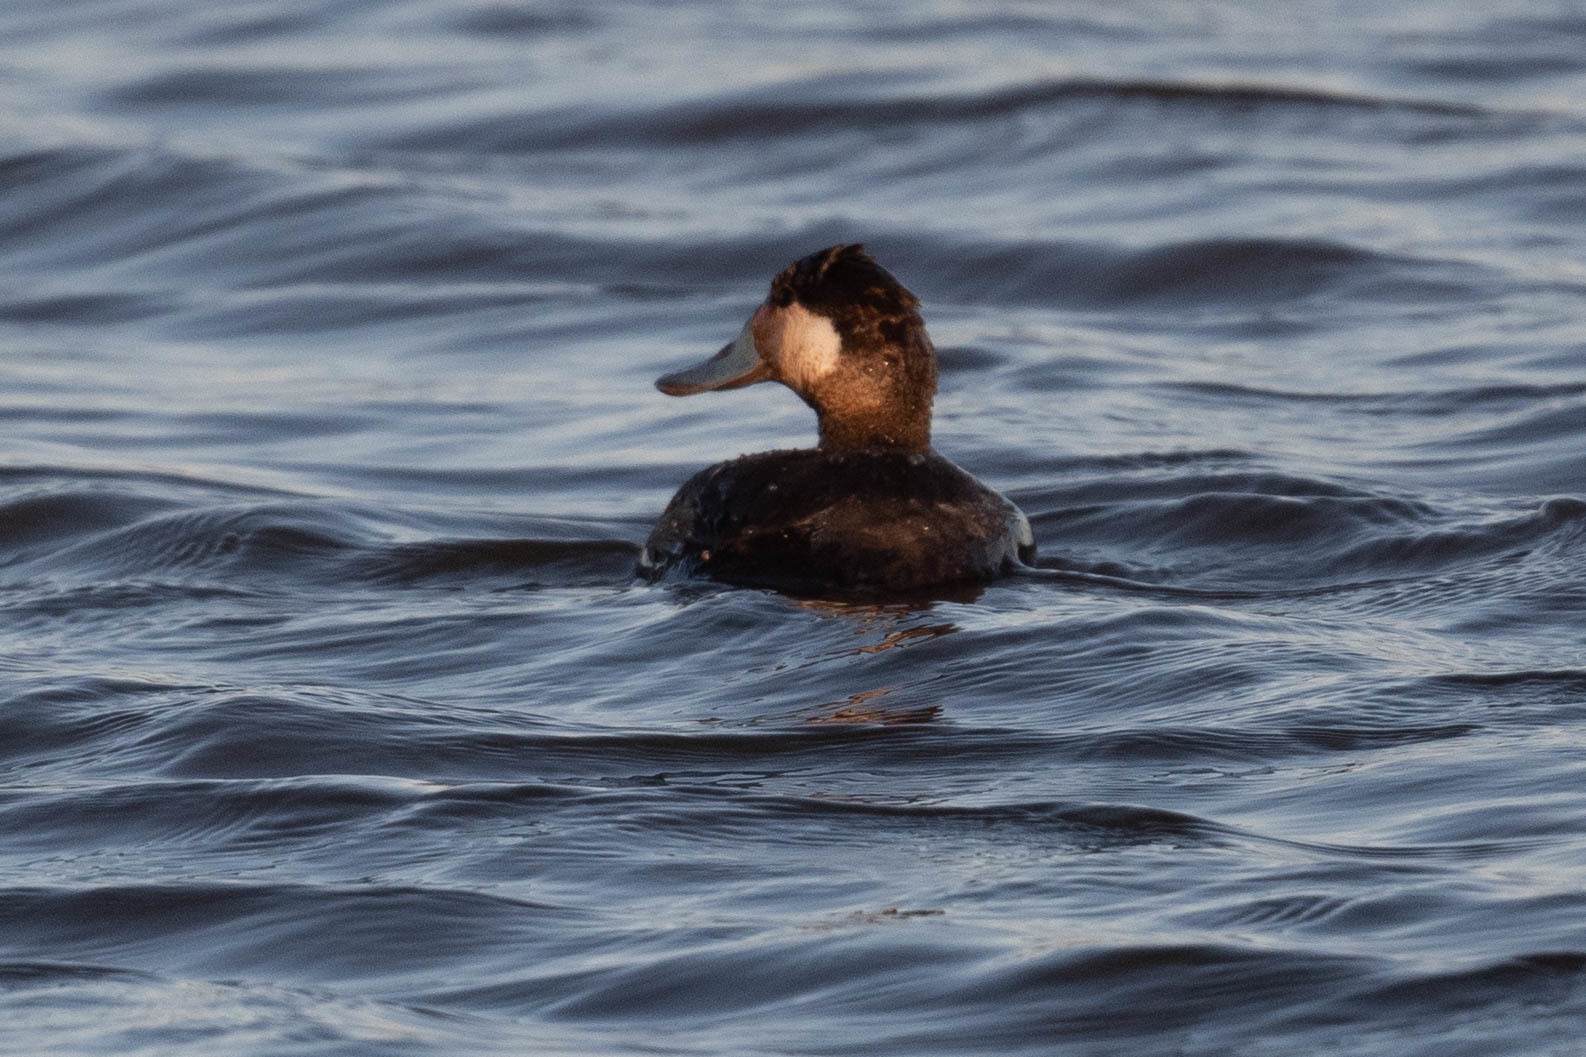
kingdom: Animalia
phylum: Chordata
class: Aves
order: Anseriformes
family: Anatidae
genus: Oxyura
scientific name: Oxyura jamaicensis
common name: Ruddy duck
